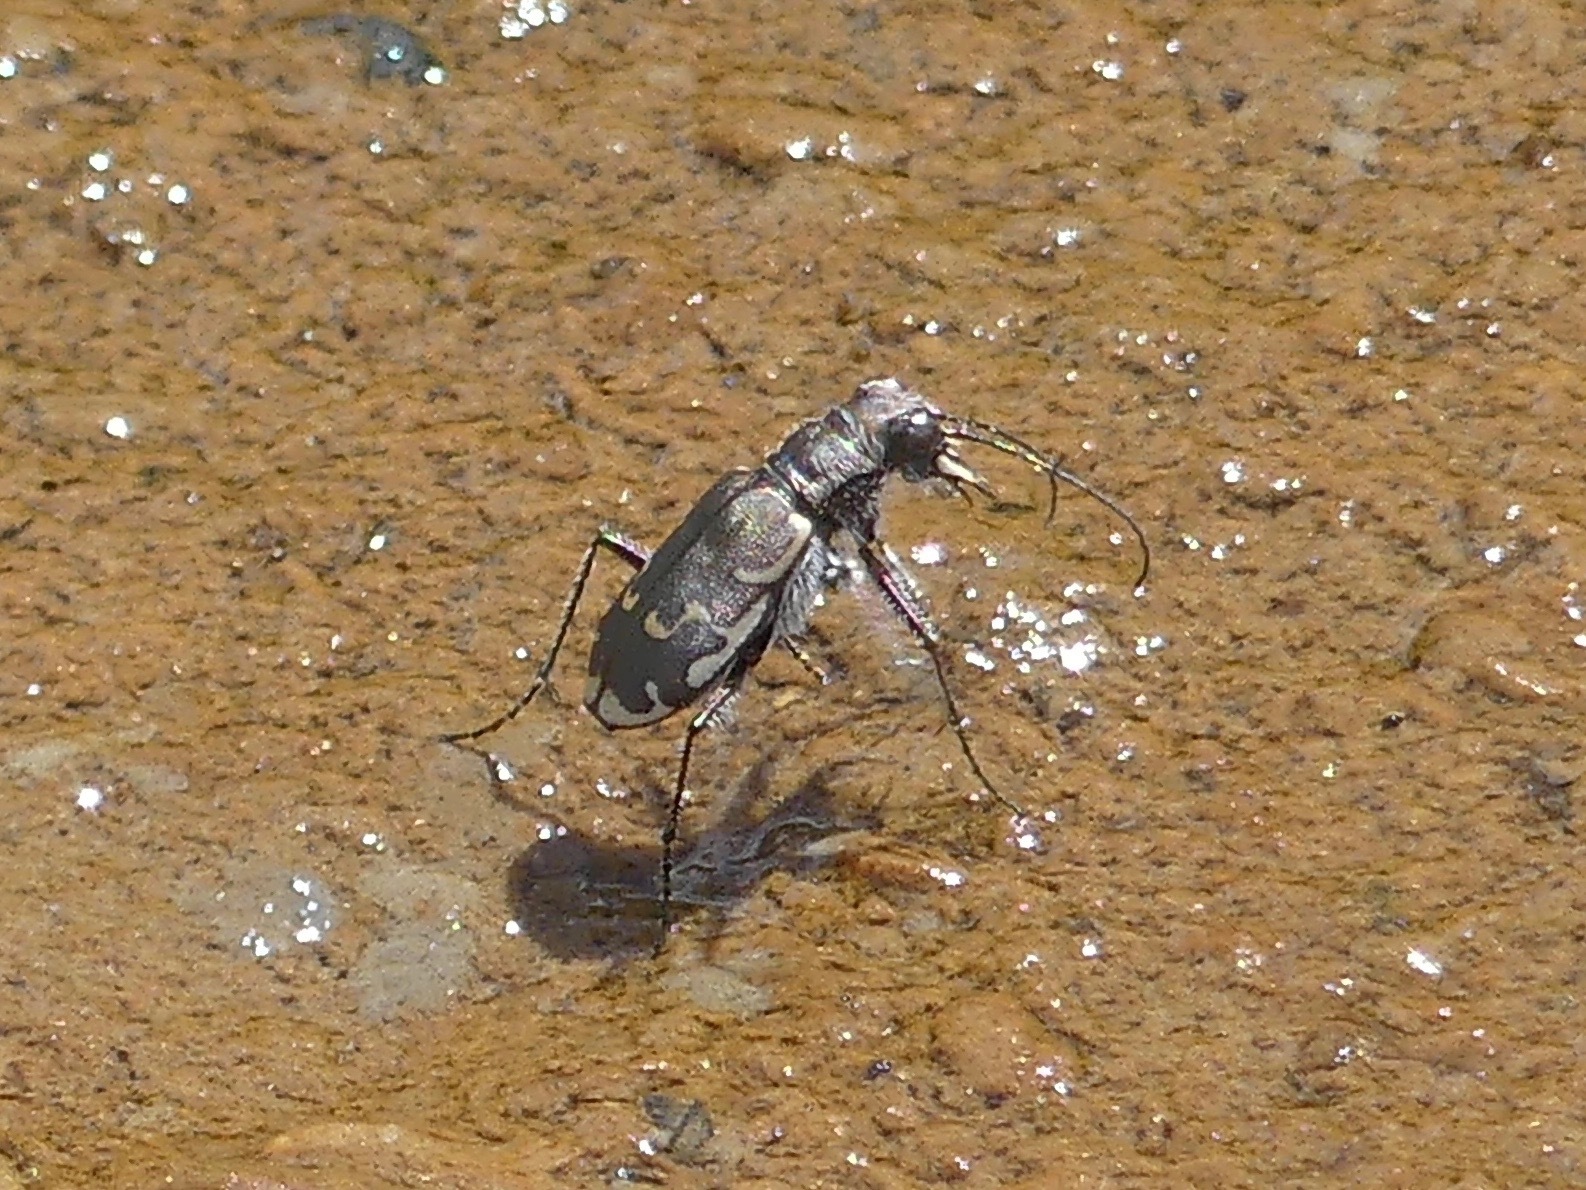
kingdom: Animalia
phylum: Arthropoda
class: Insecta
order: Coleoptera
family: Carabidae
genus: Cicindela
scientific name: Cicindela repanda
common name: Bronzed tiger beetle
